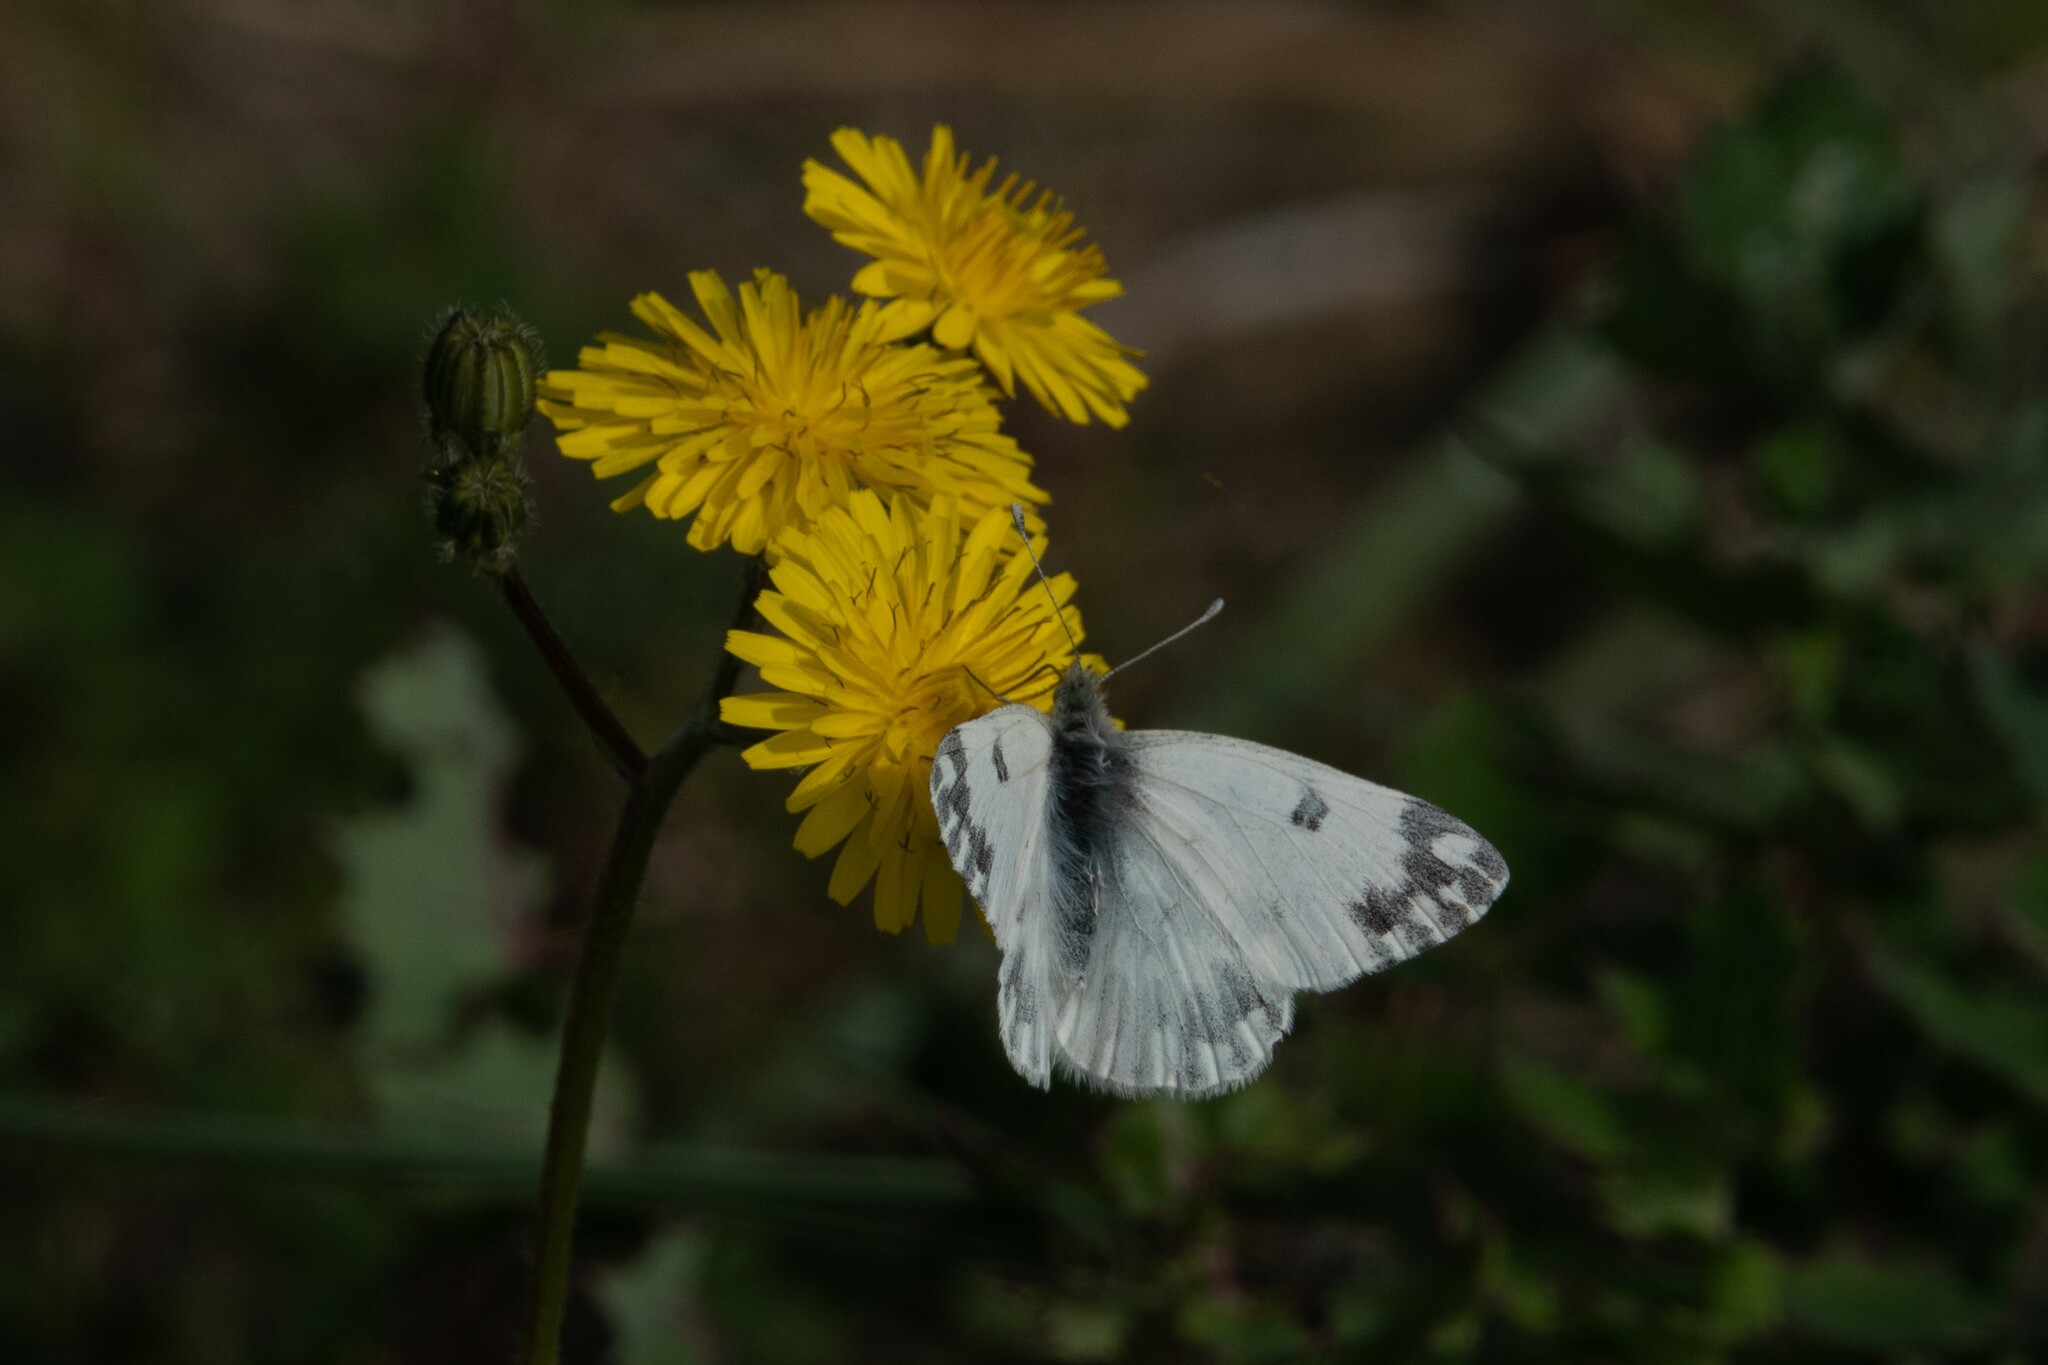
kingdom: Animalia
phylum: Arthropoda
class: Insecta
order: Lepidoptera
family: Pieridae
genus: Pontia
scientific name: Pontia edusa
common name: Eastern bath white
